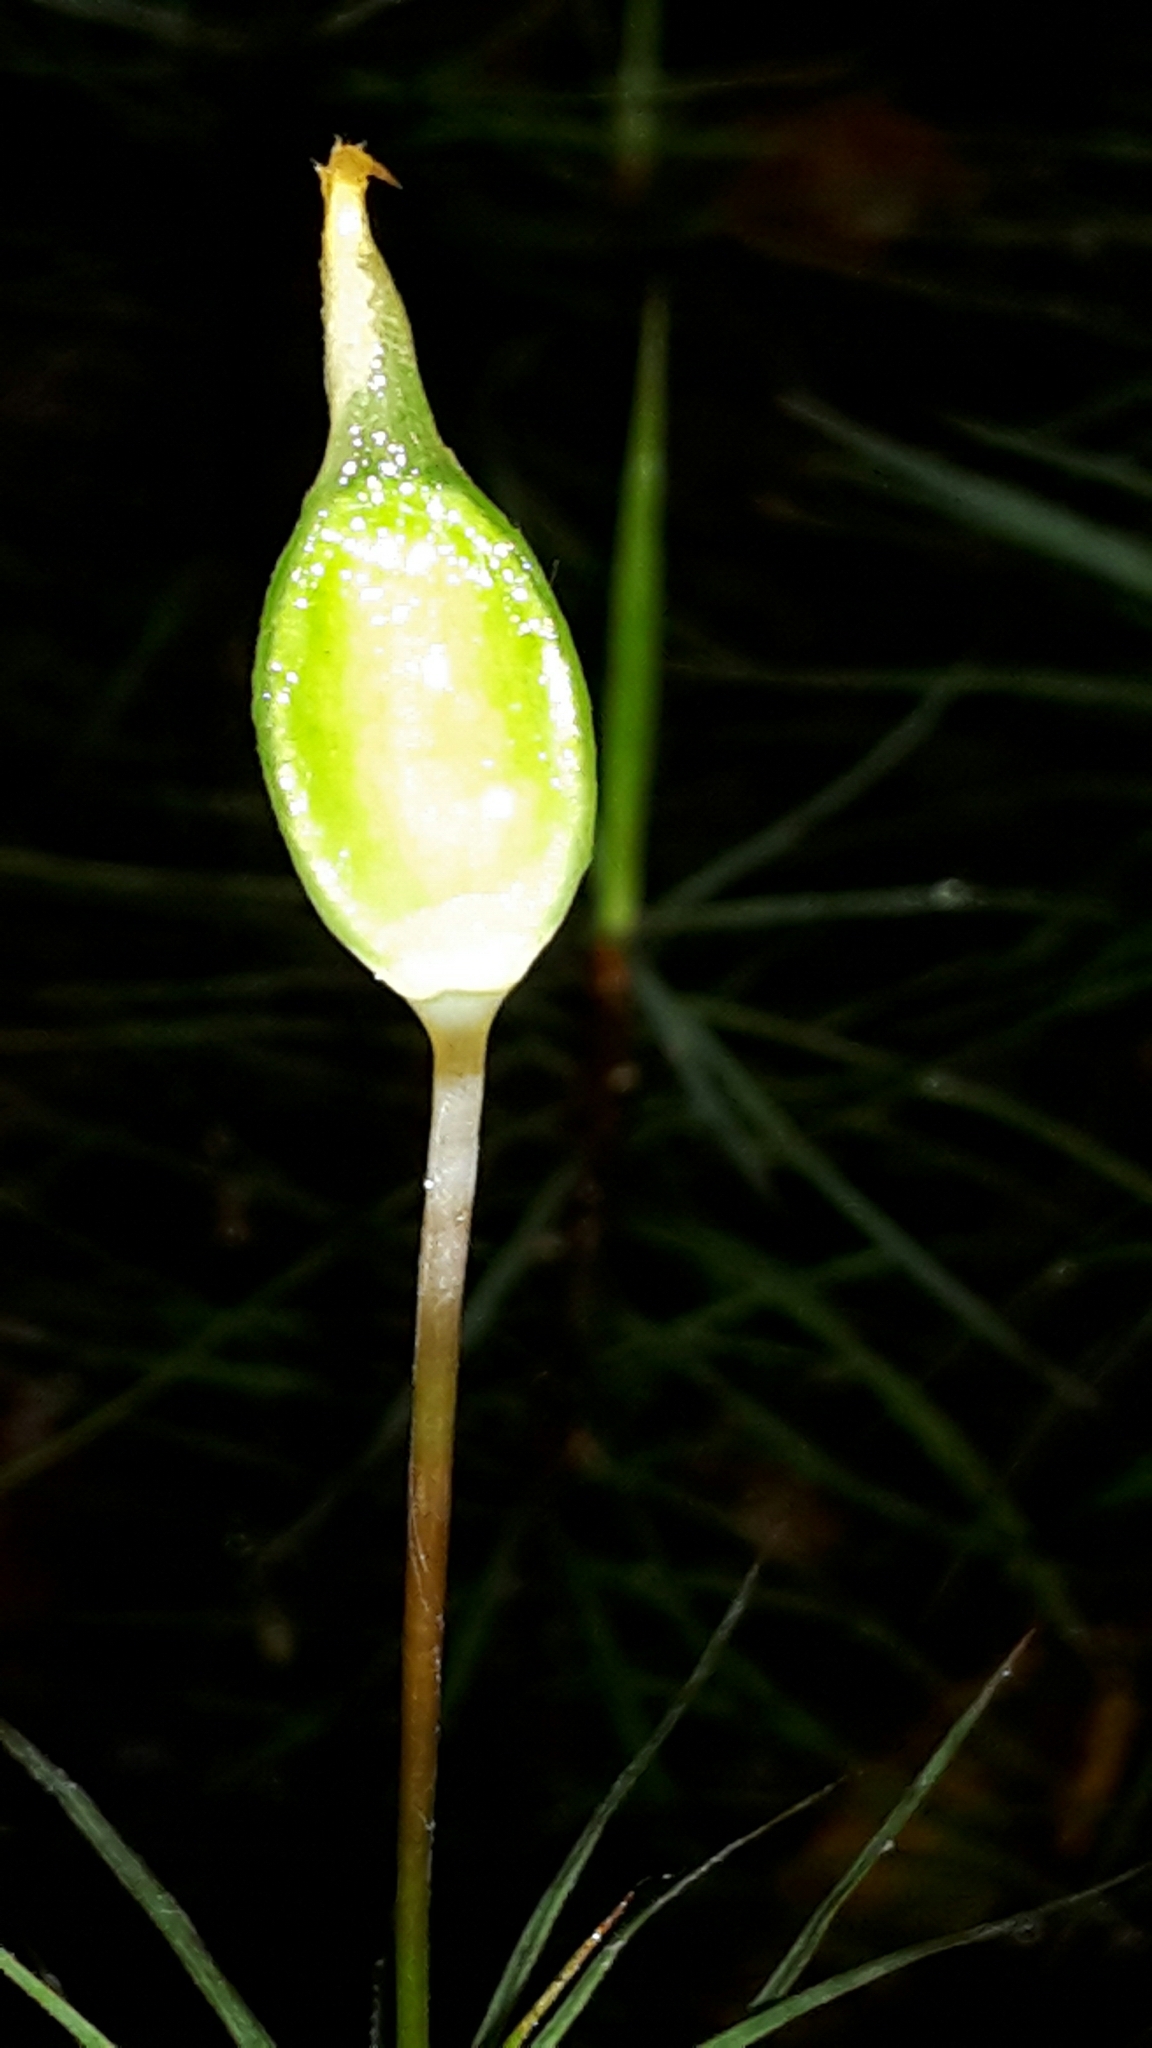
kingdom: Plantae
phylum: Bryophyta
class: Polytrichopsida
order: Polytrichales
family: Polytrichaceae
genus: Dawsonia
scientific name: Dawsonia superba
